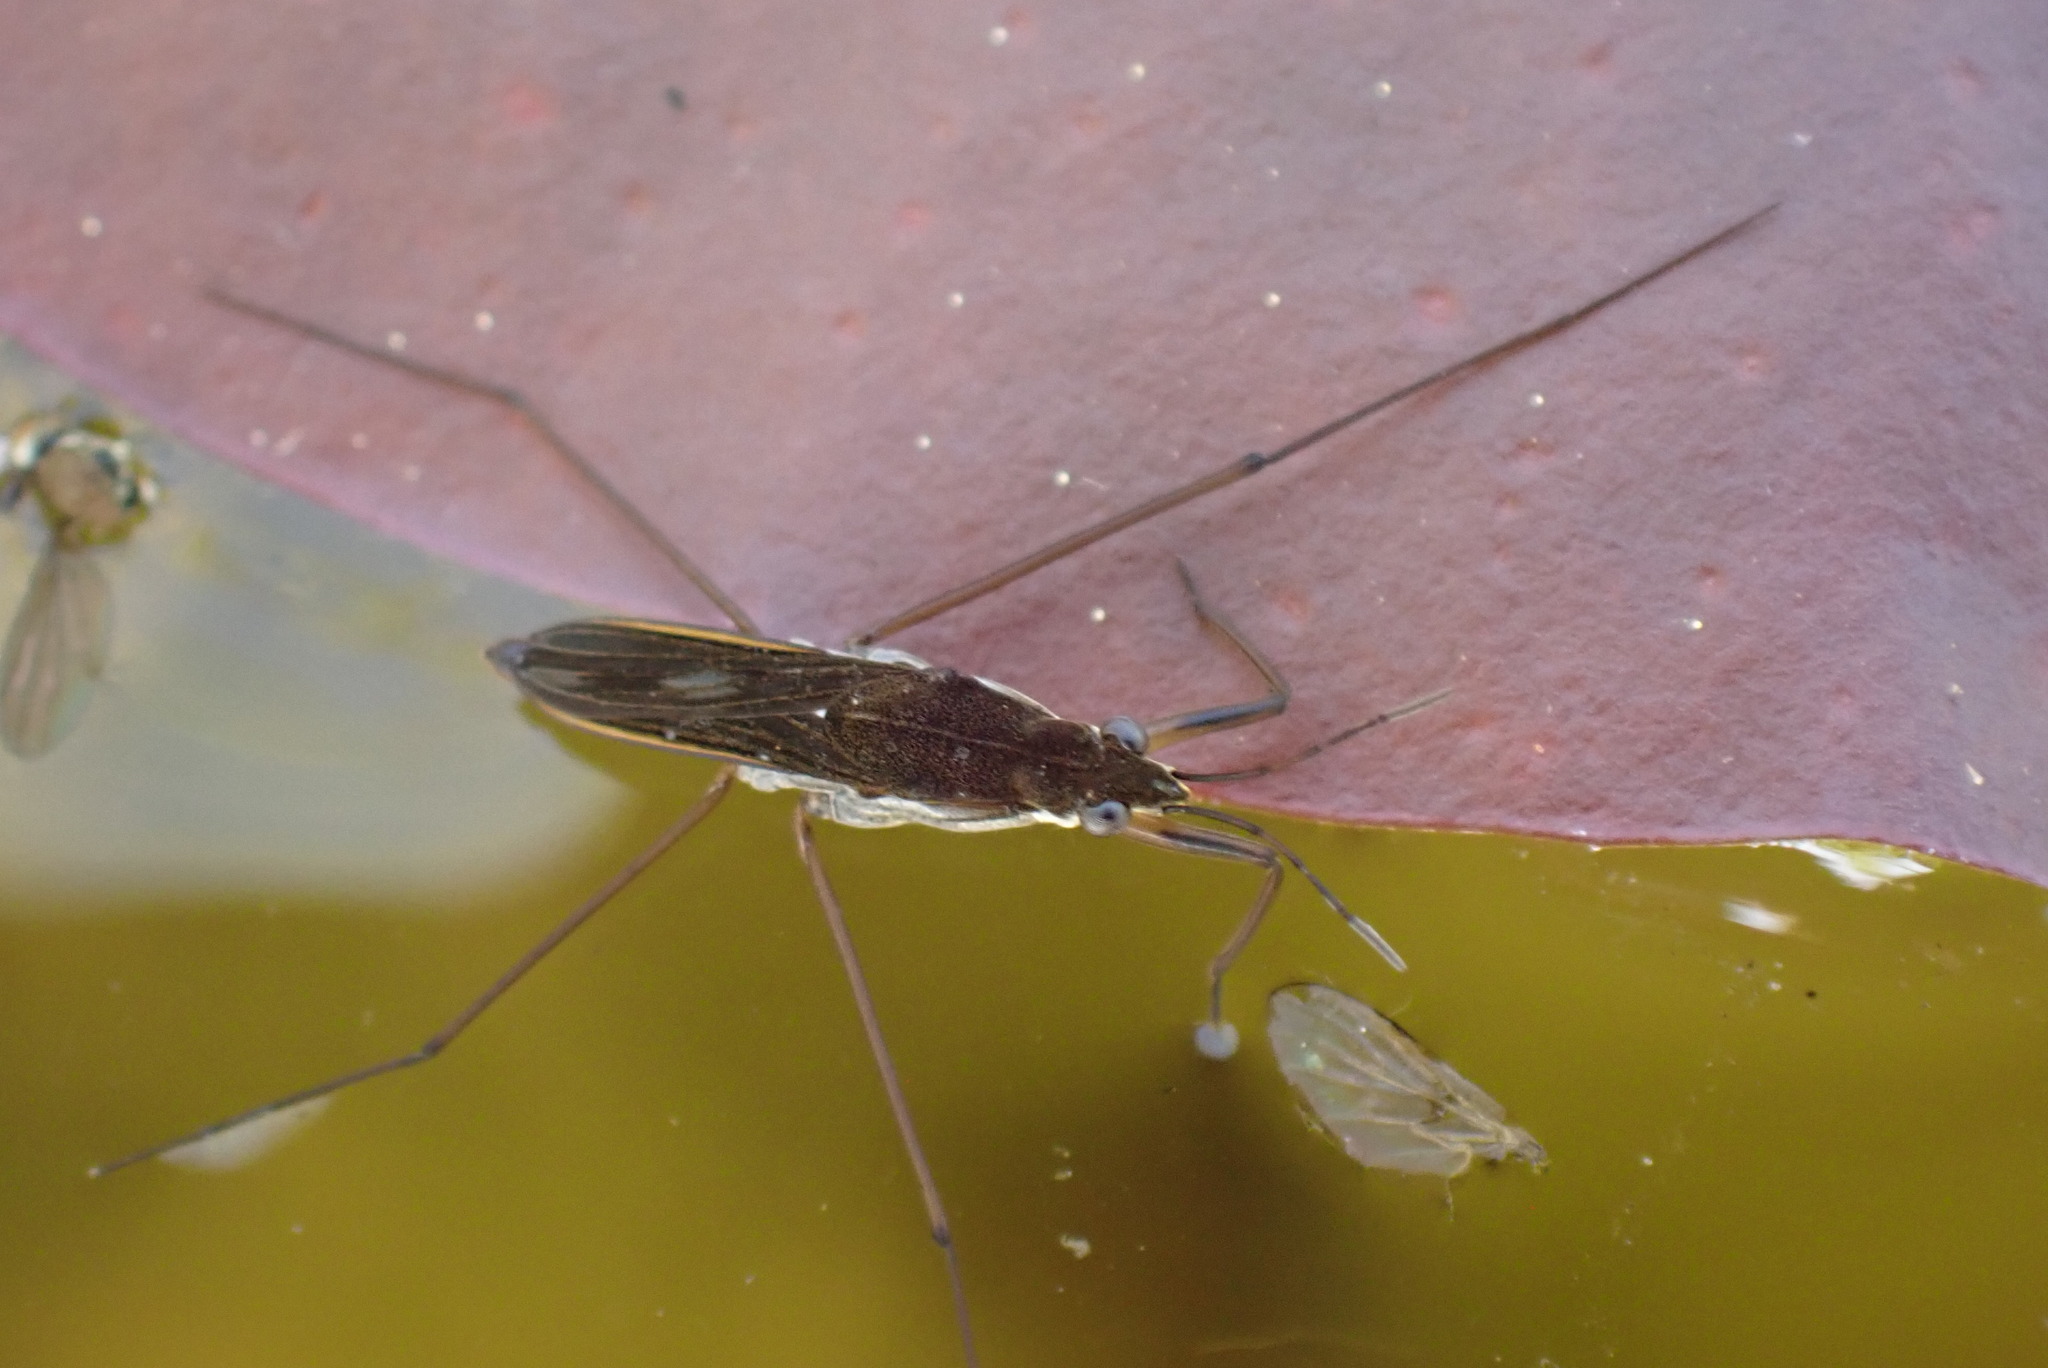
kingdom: Animalia
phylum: Arthropoda
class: Insecta
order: Hemiptera
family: Gerridae
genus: Gerris
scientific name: Gerris
